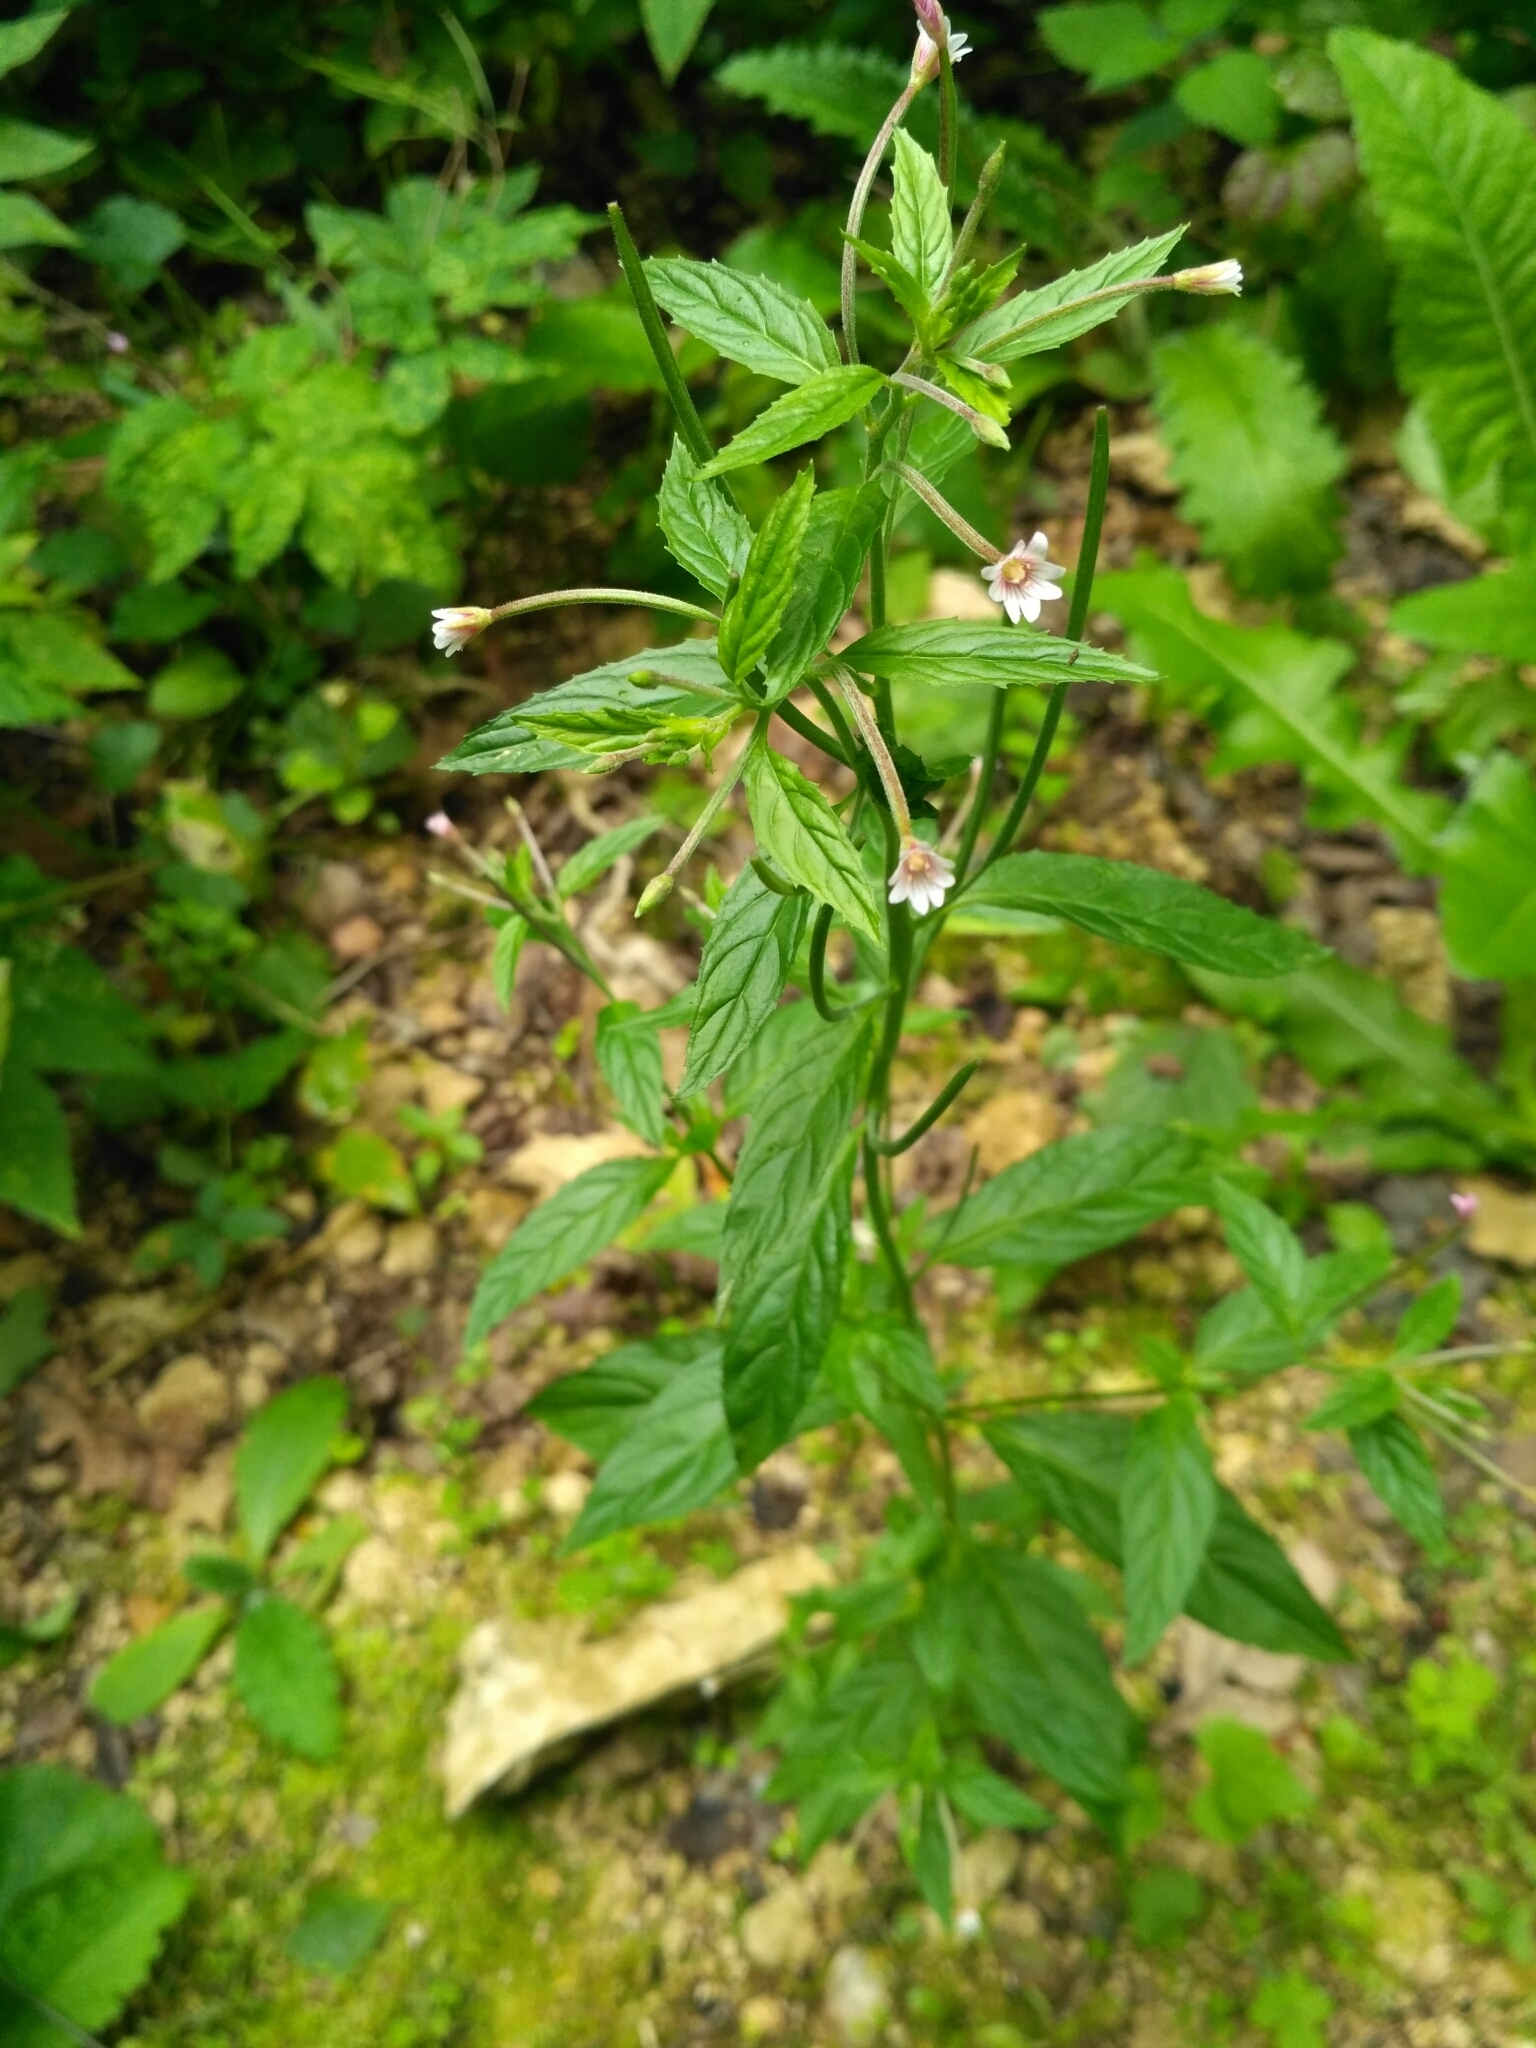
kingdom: Plantae
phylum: Tracheophyta
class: Magnoliopsida
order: Myrtales
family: Onagraceae
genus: Epilobium
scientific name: Epilobium roseum
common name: Pale willowherb
